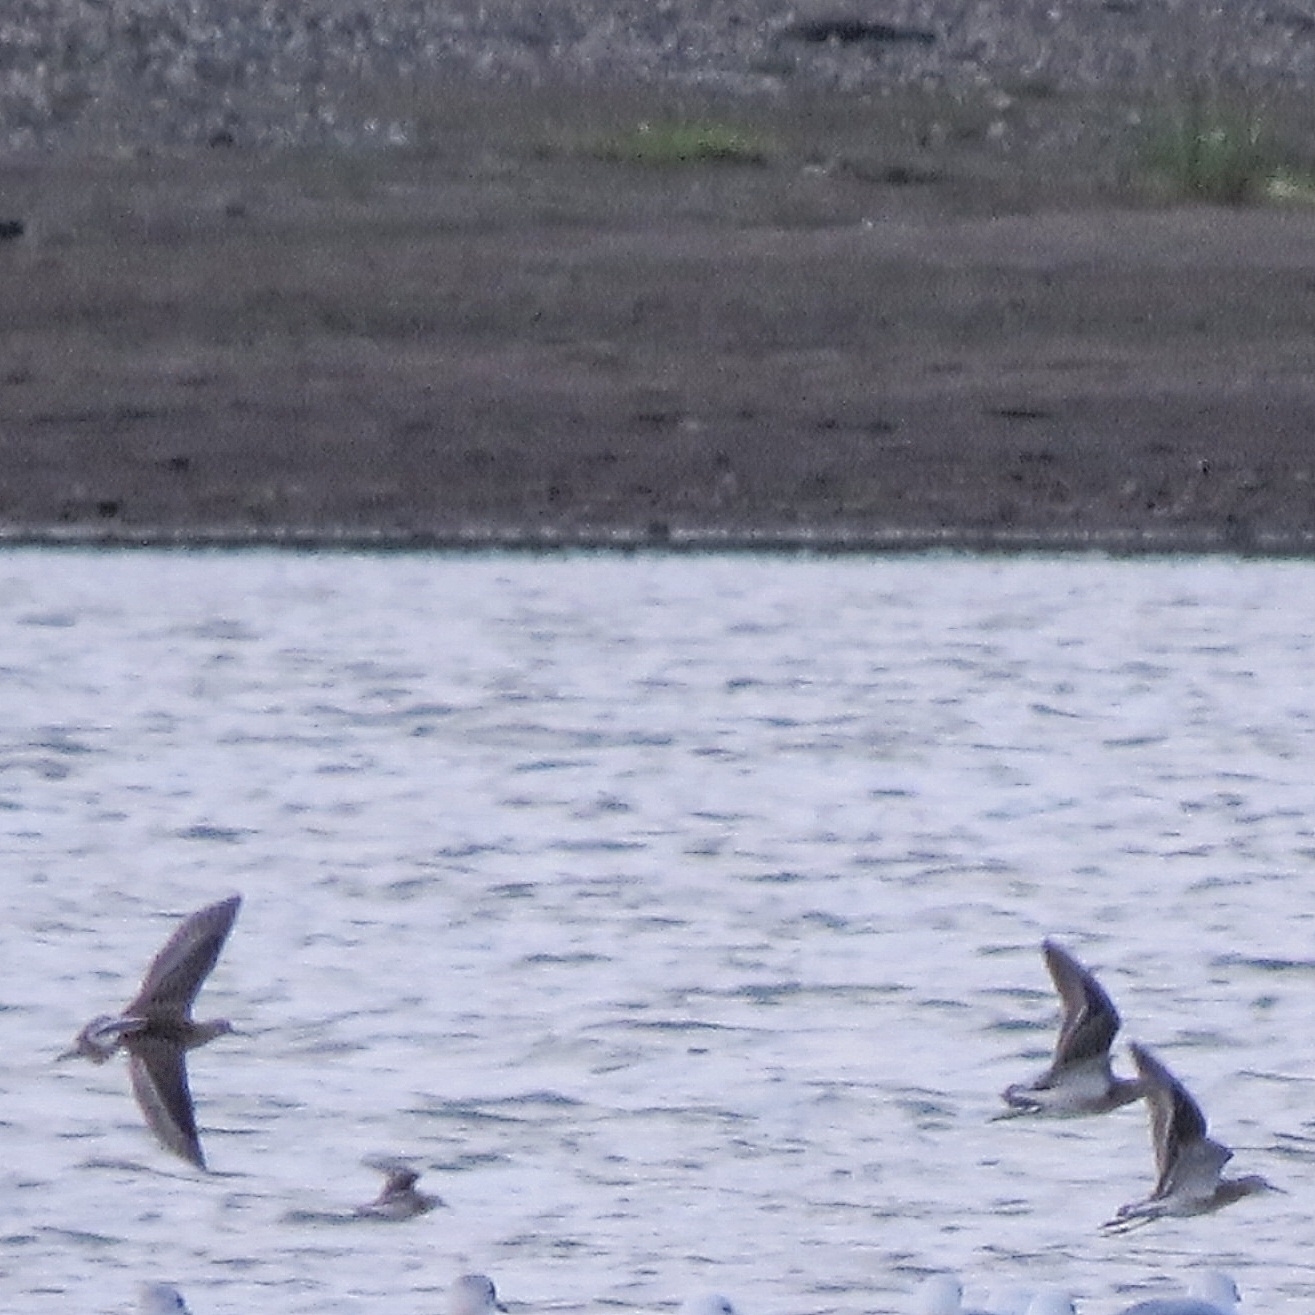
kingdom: Animalia
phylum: Chordata
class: Aves
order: Charadriiformes
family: Scolopacidae
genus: Calidris
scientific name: Calidris pugnax
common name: Ruff
